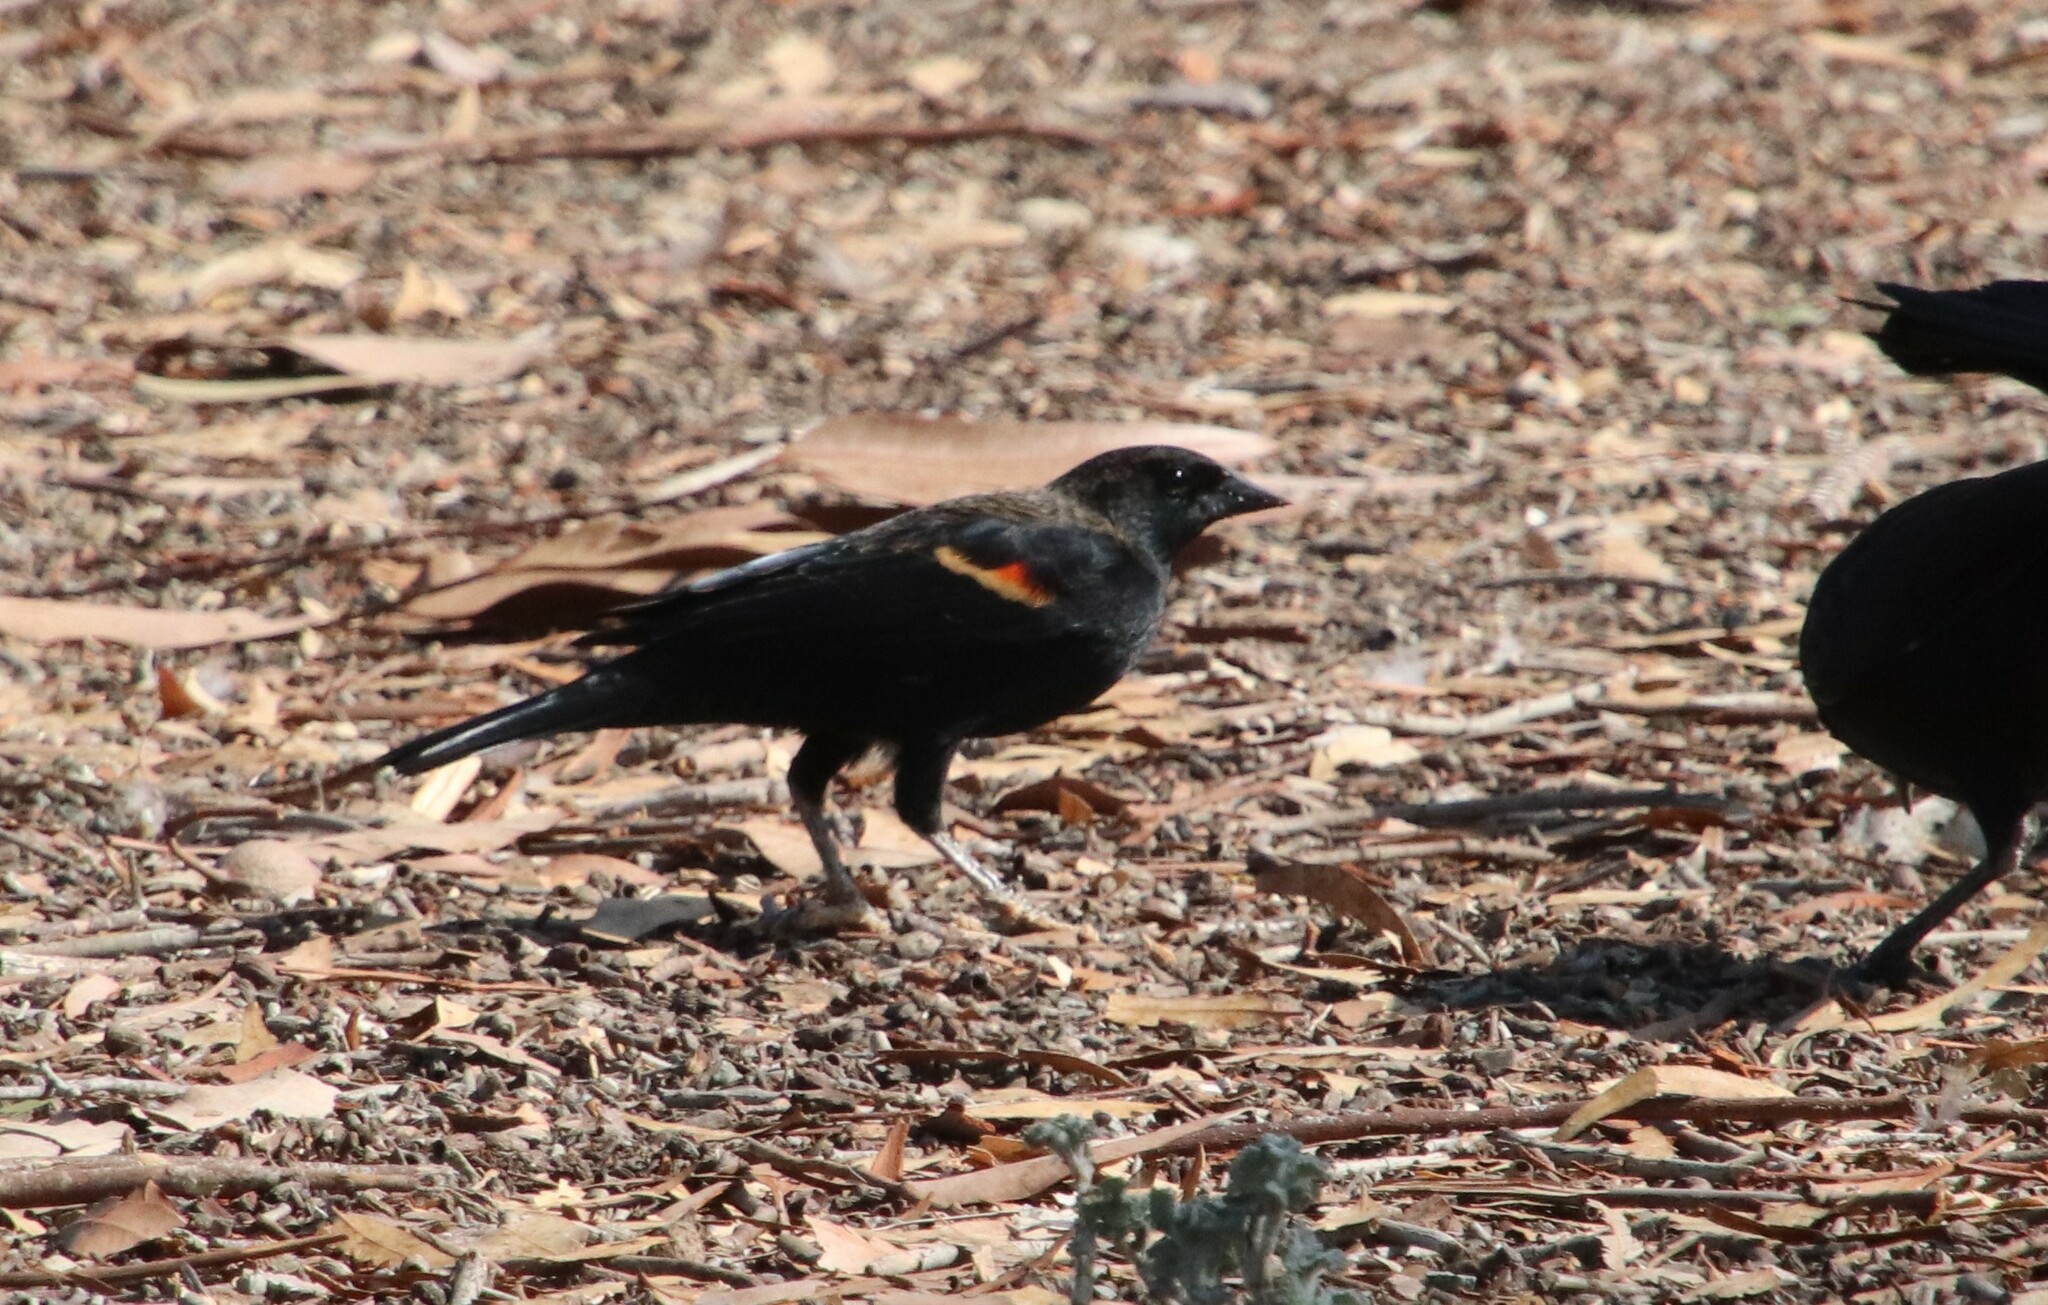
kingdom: Animalia
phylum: Chordata
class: Aves
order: Passeriformes
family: Icteridae
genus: Agelaius
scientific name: Agelaius phoeniceus
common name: Red-winged blackbird
